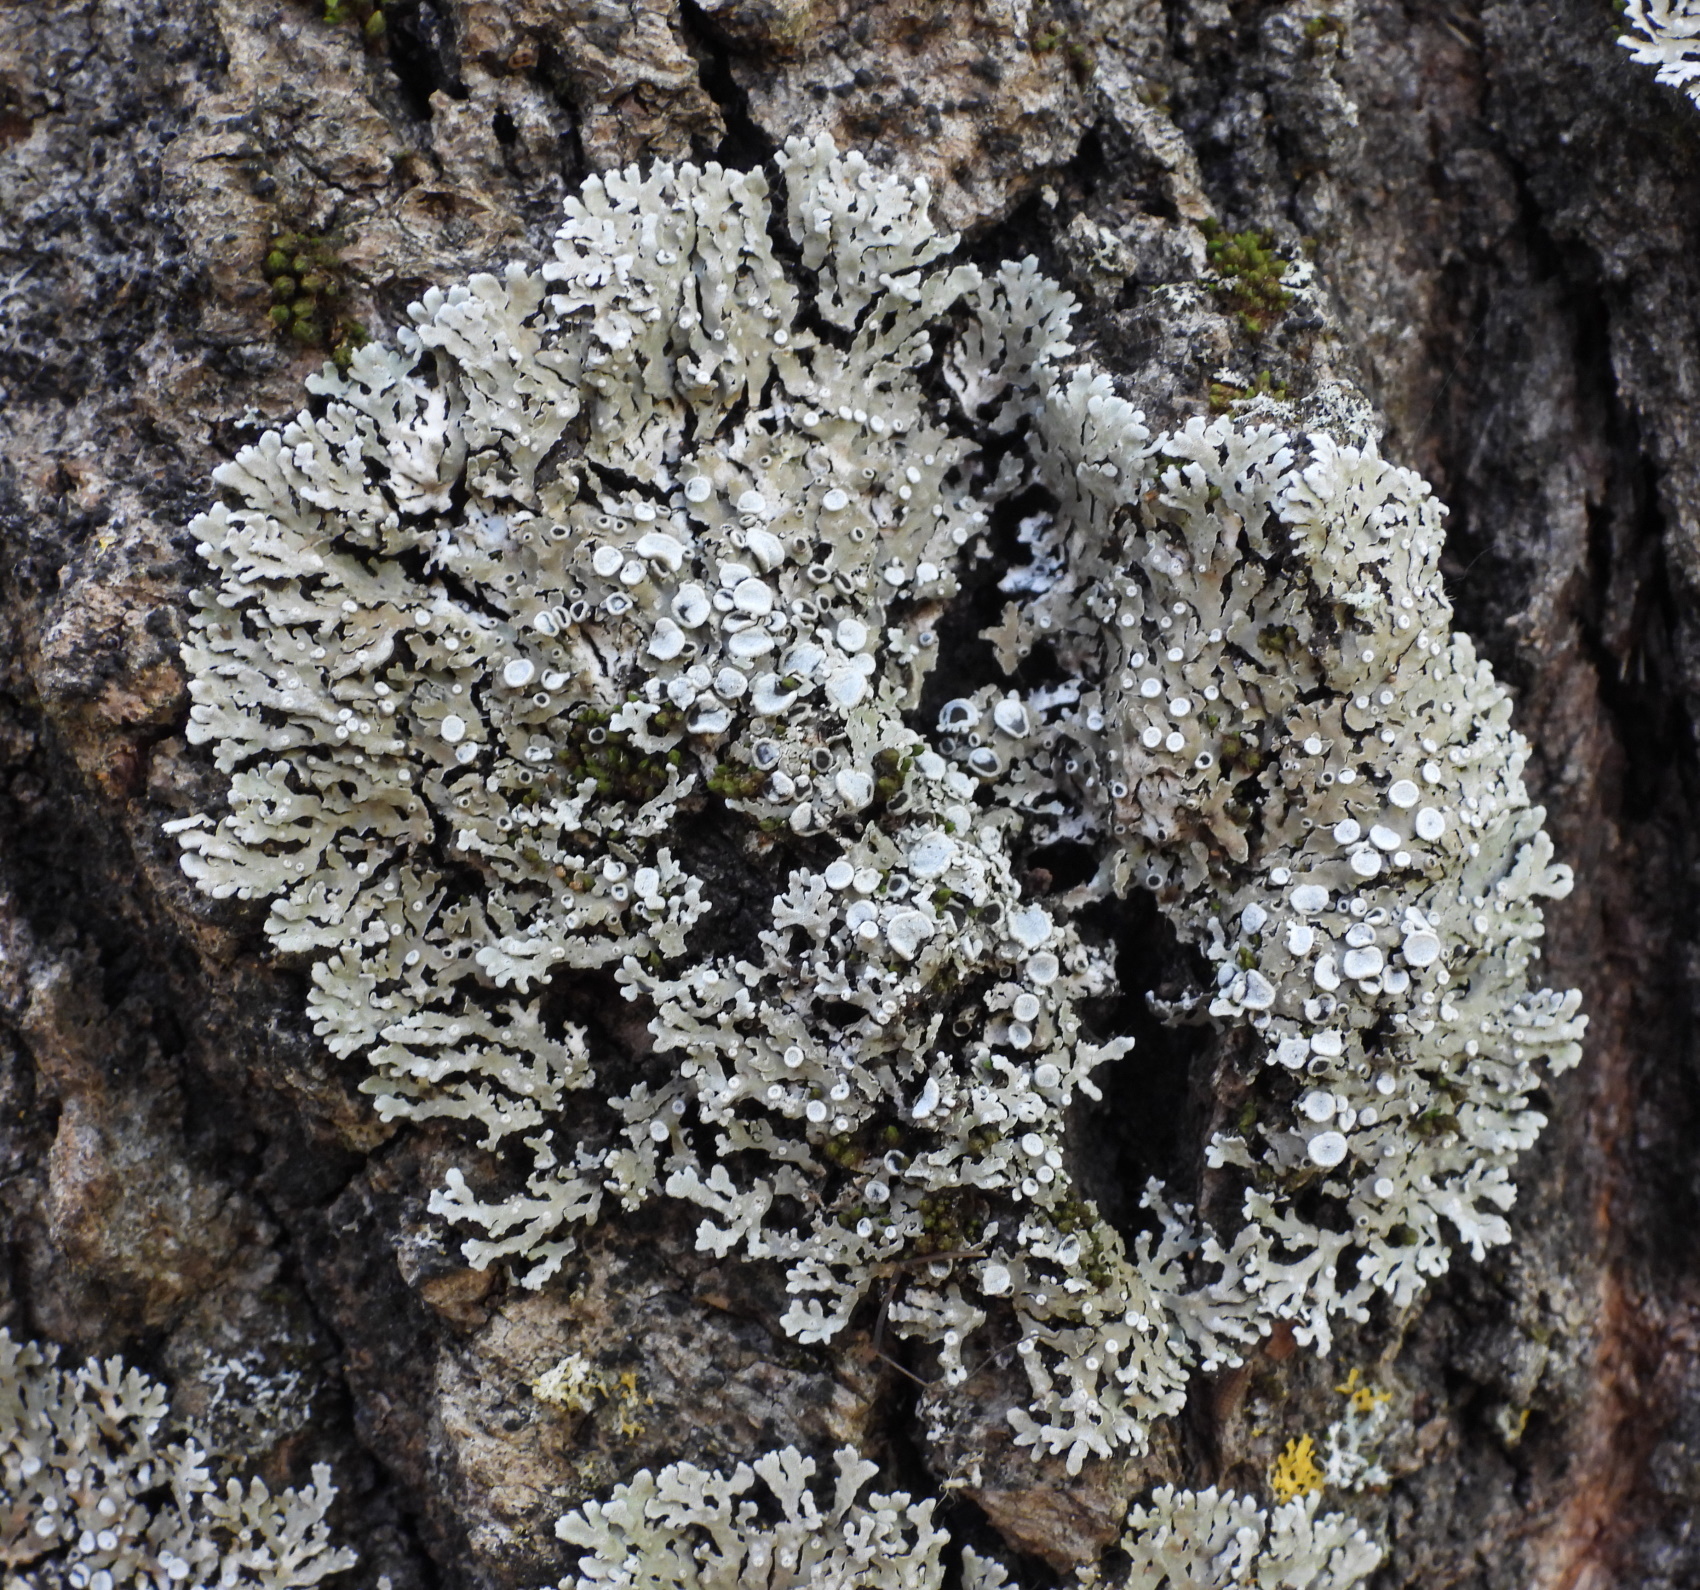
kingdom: Fungi
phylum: Ascomycota
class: Lecanoromycetes
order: Caliciales
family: Physciaceae
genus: Physconia
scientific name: Physconia distorta
